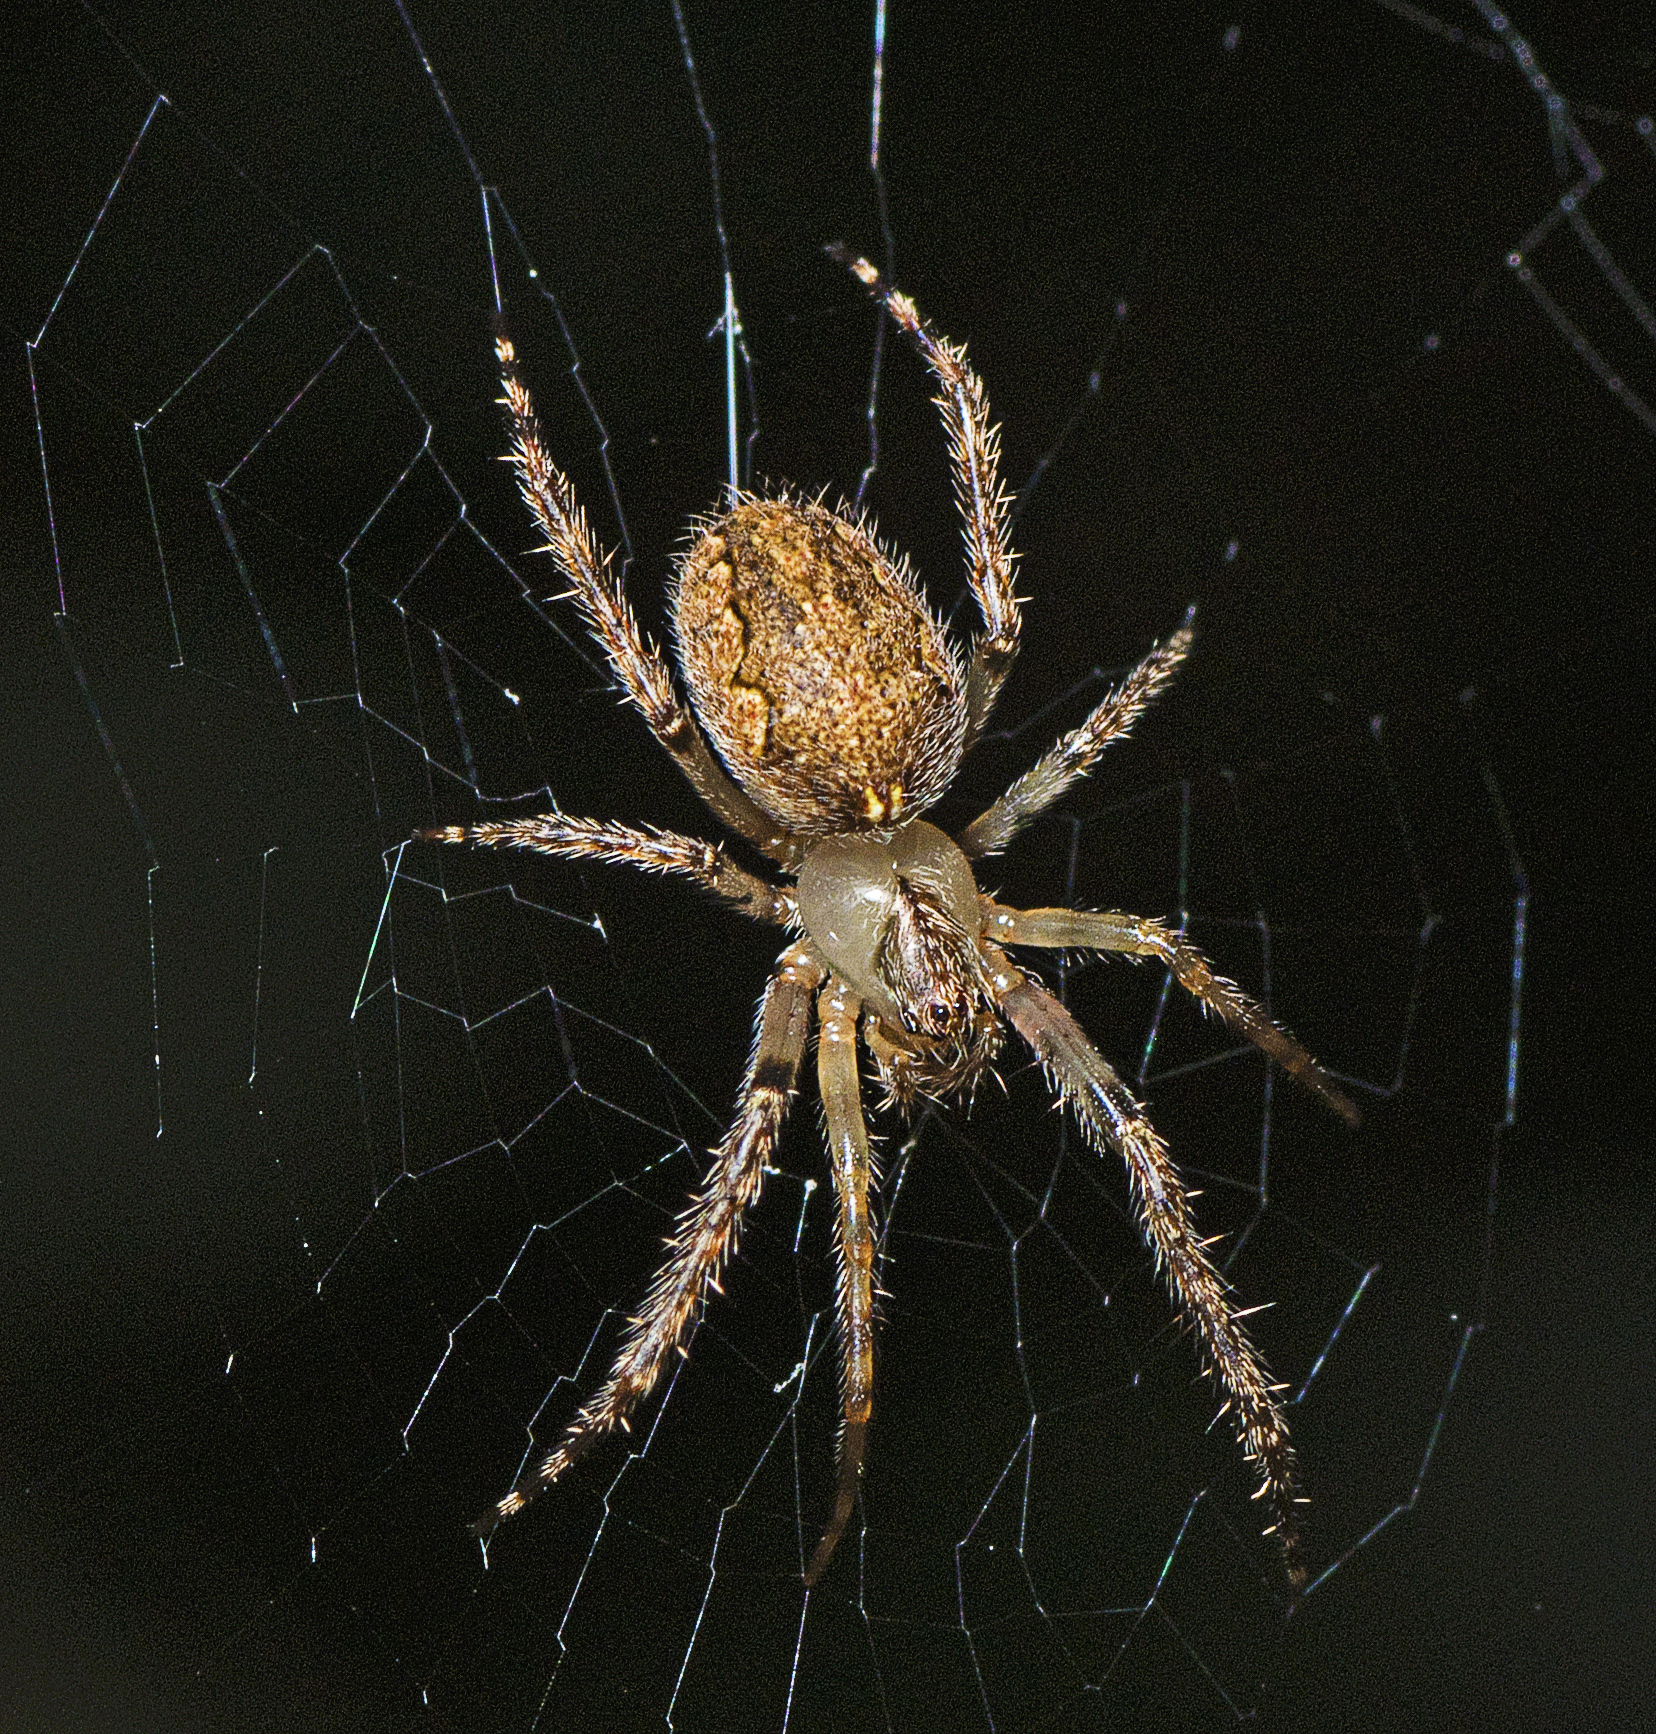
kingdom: Animalia
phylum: Arthropoda
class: Arachnida
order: Araneae
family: Araneidae
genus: Araneus
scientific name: Araneus stolidus
